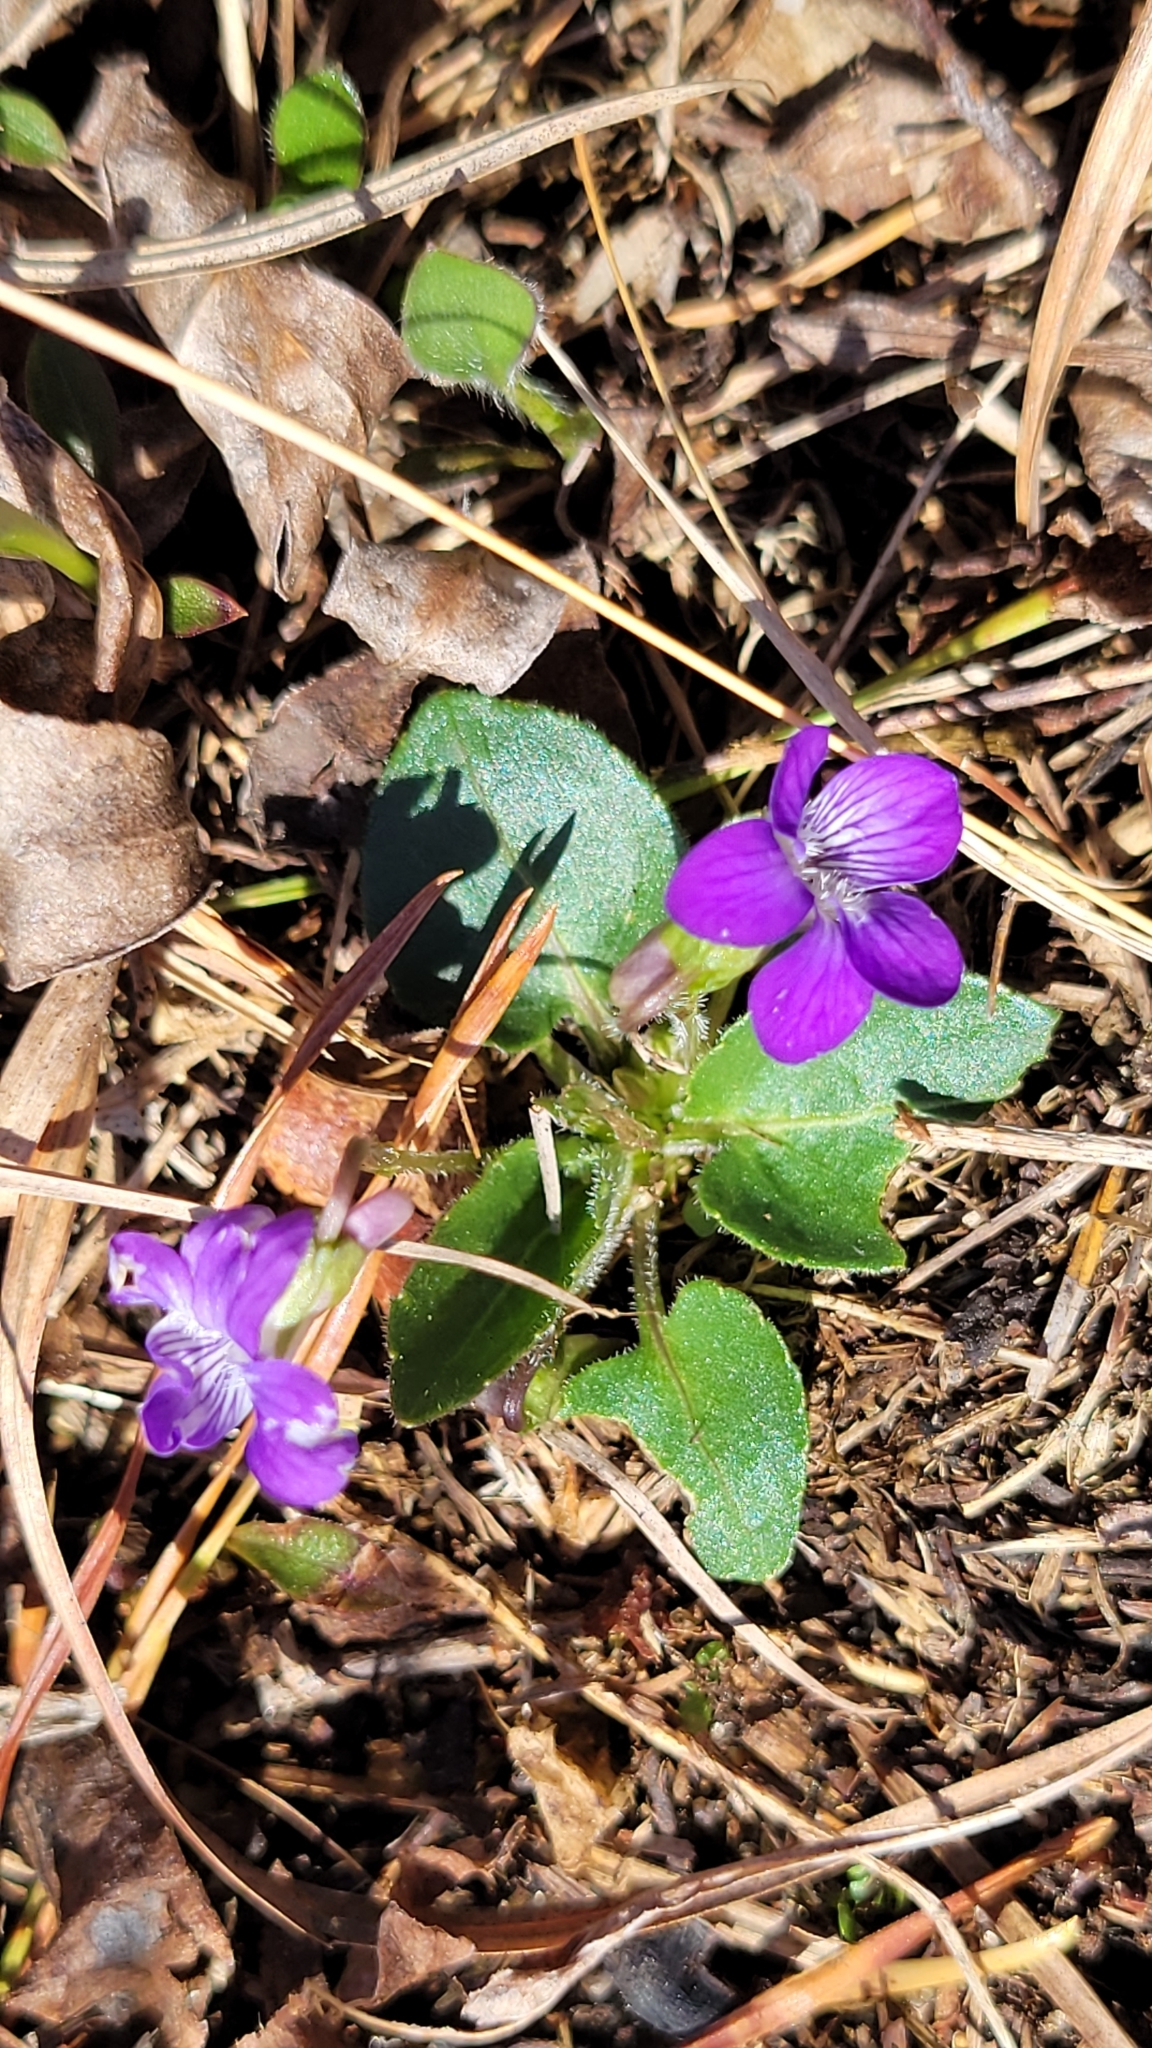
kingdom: Plantae
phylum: Tracheophyta
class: Magnoliopsida
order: Malpighiales
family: Violaceae
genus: Viola
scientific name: Viola fimbriatula
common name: Sand violet
